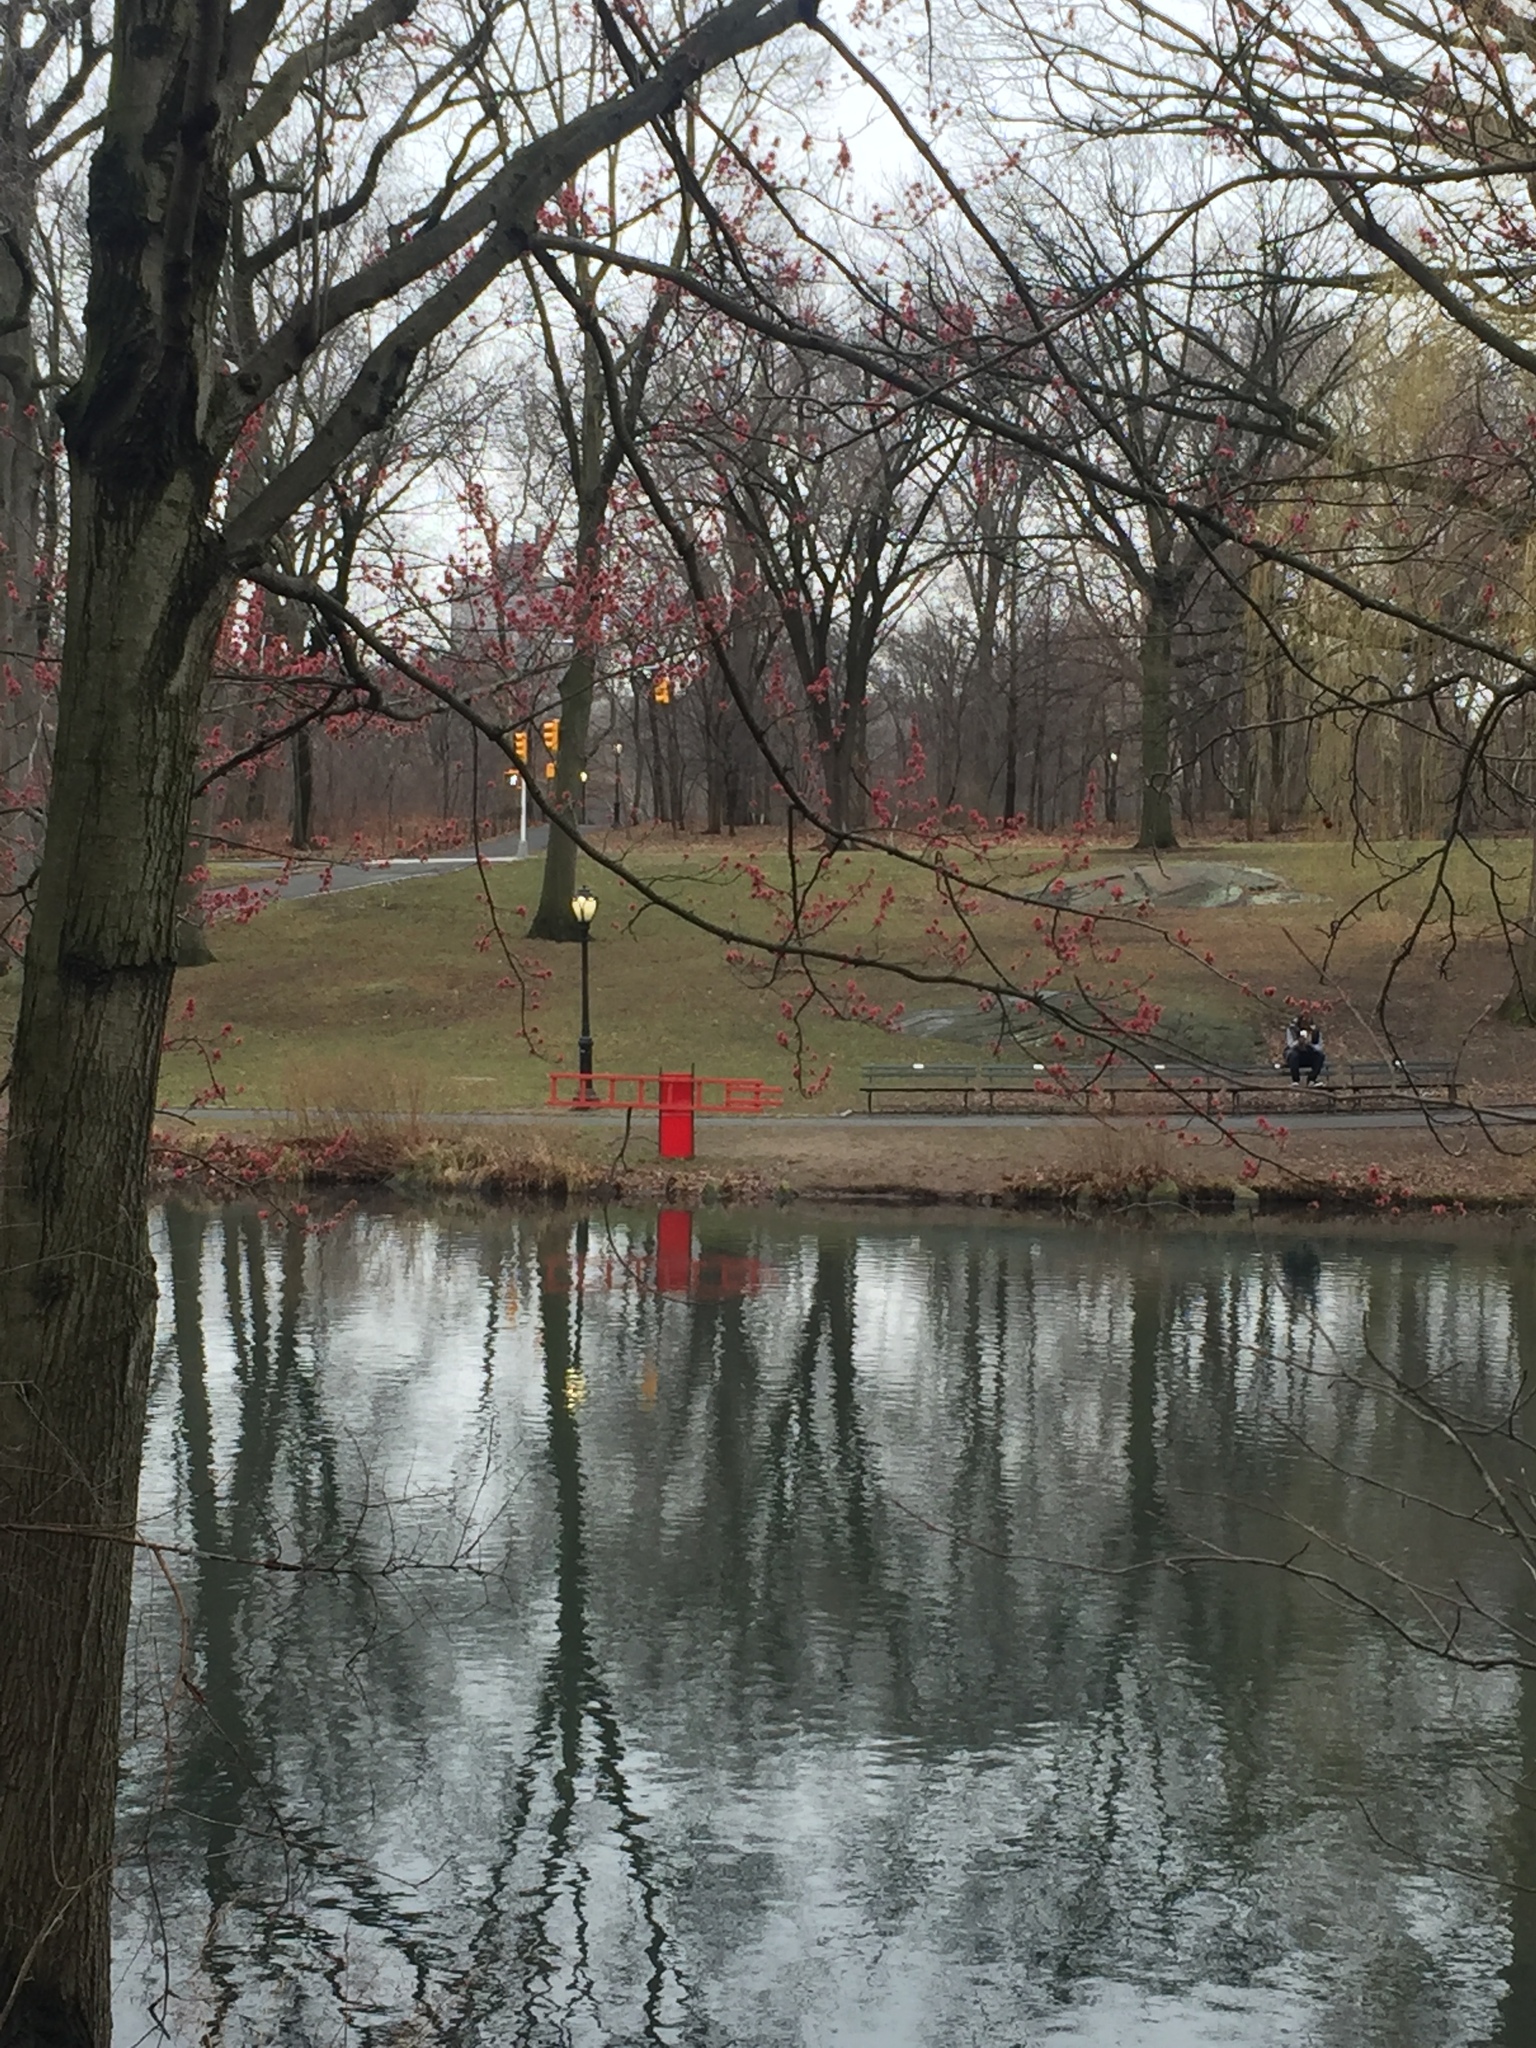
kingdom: Plantae
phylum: Tracheophyta
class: Magnoliopsida
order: Sapindales
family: Sapindaceae
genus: Acer
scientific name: Acer rubrum
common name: Red maple
